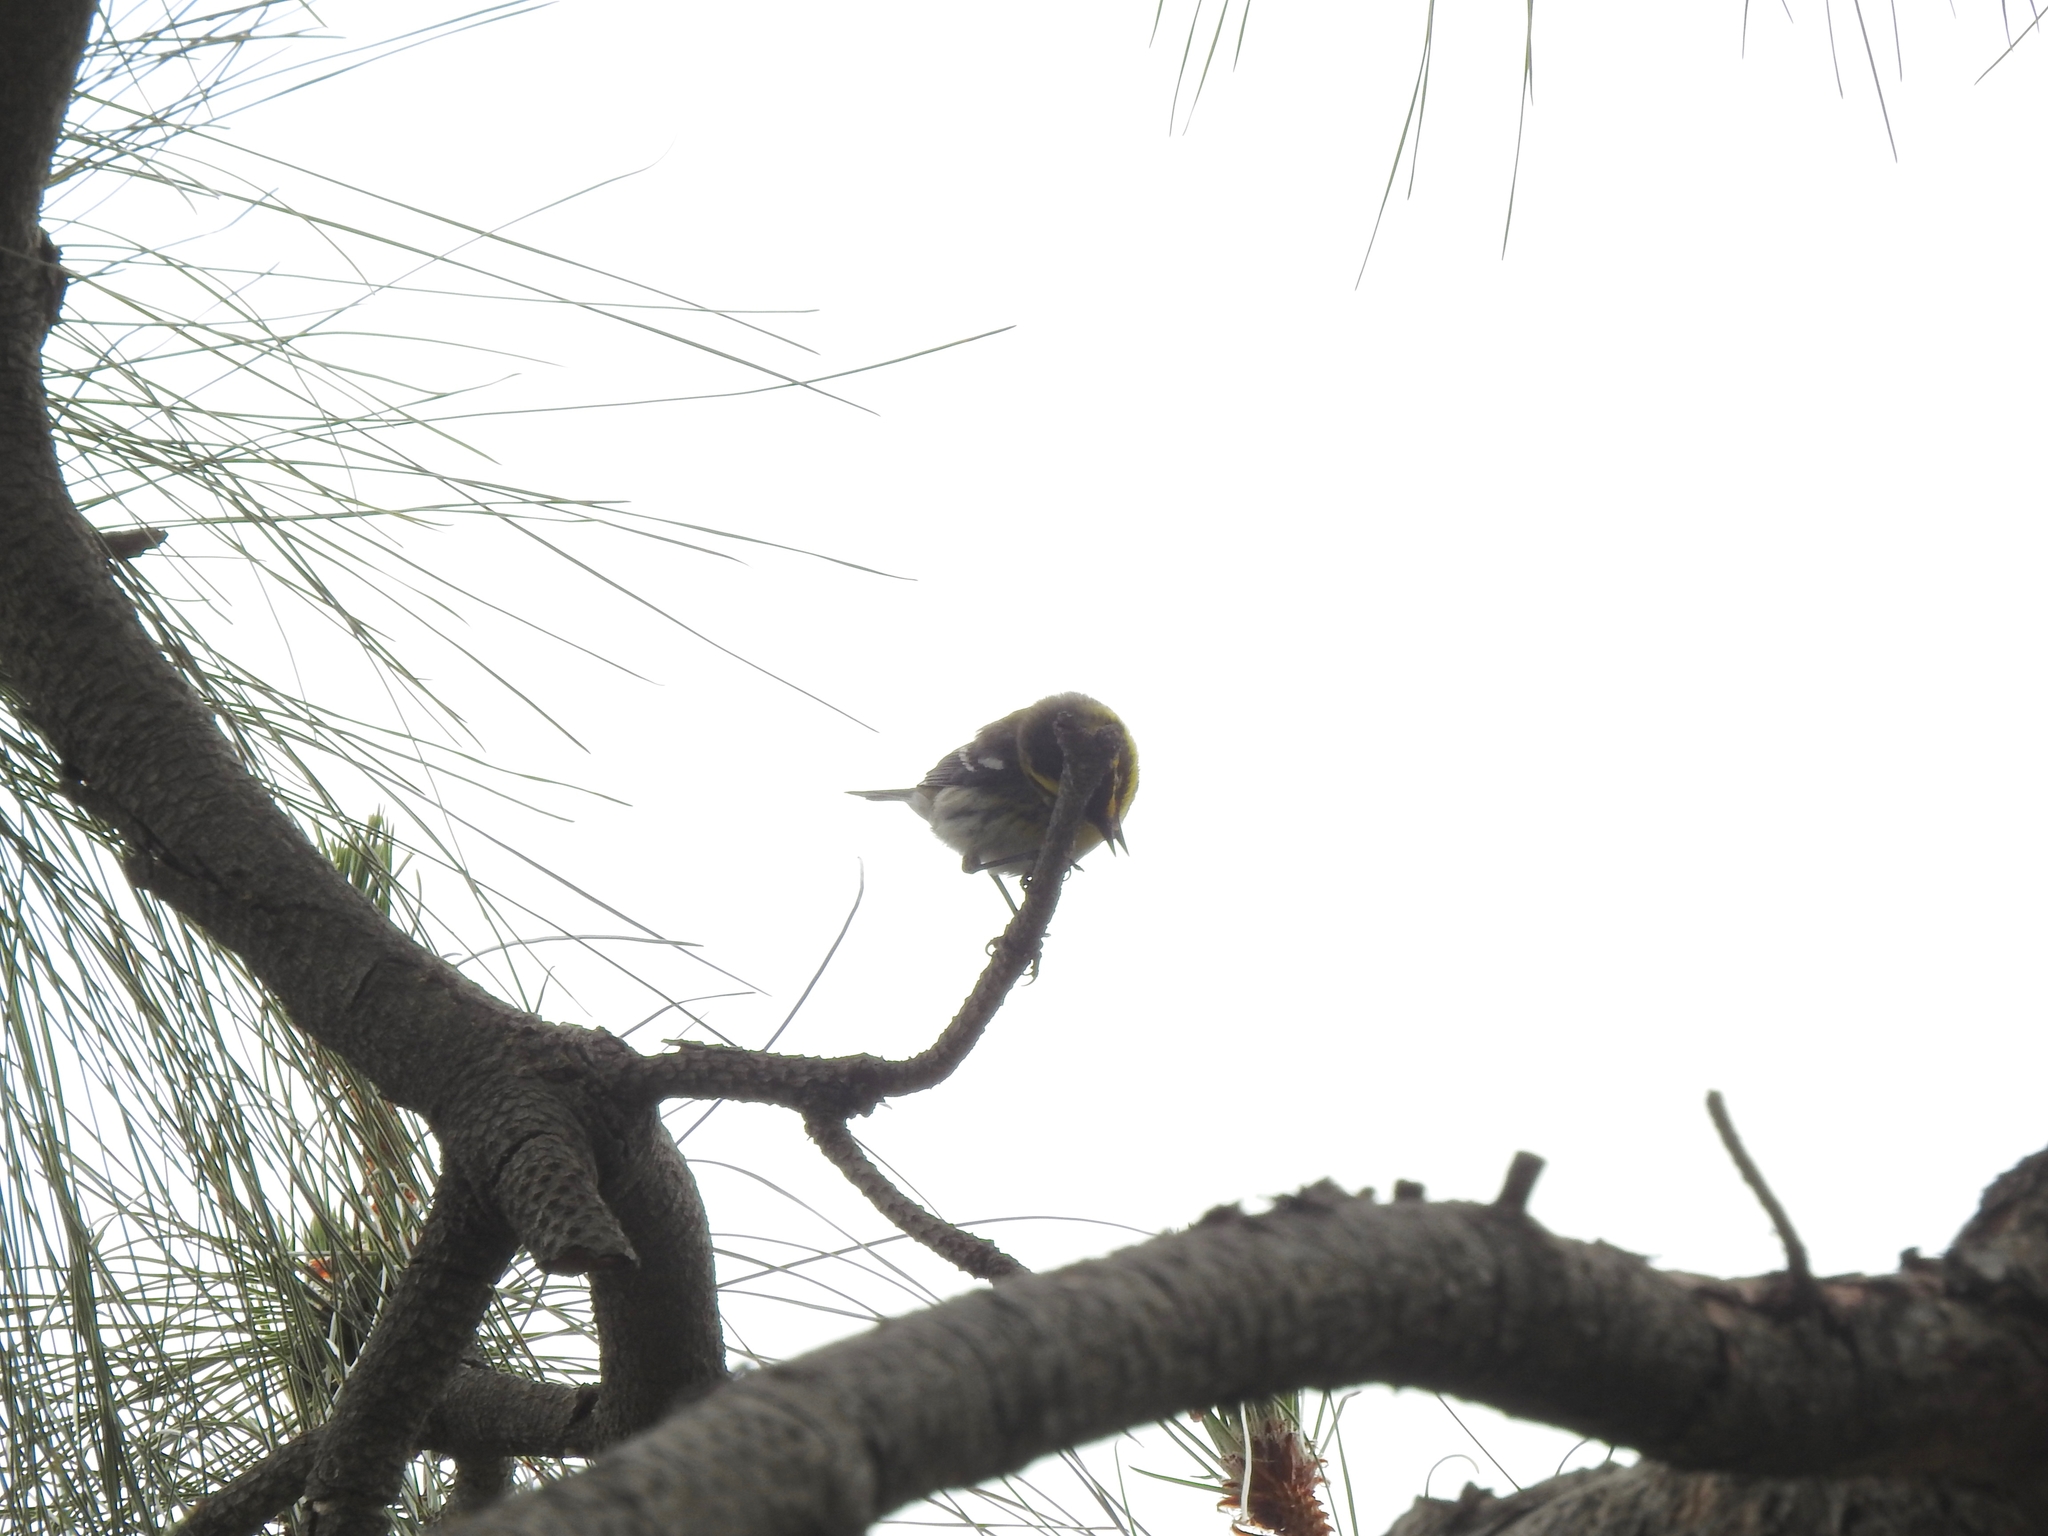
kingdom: Animalia
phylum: Chordata
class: Aves
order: Passeriformes
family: Parulidae
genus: Setophaga
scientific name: Setophaga townsendi
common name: Townsend's warbler
